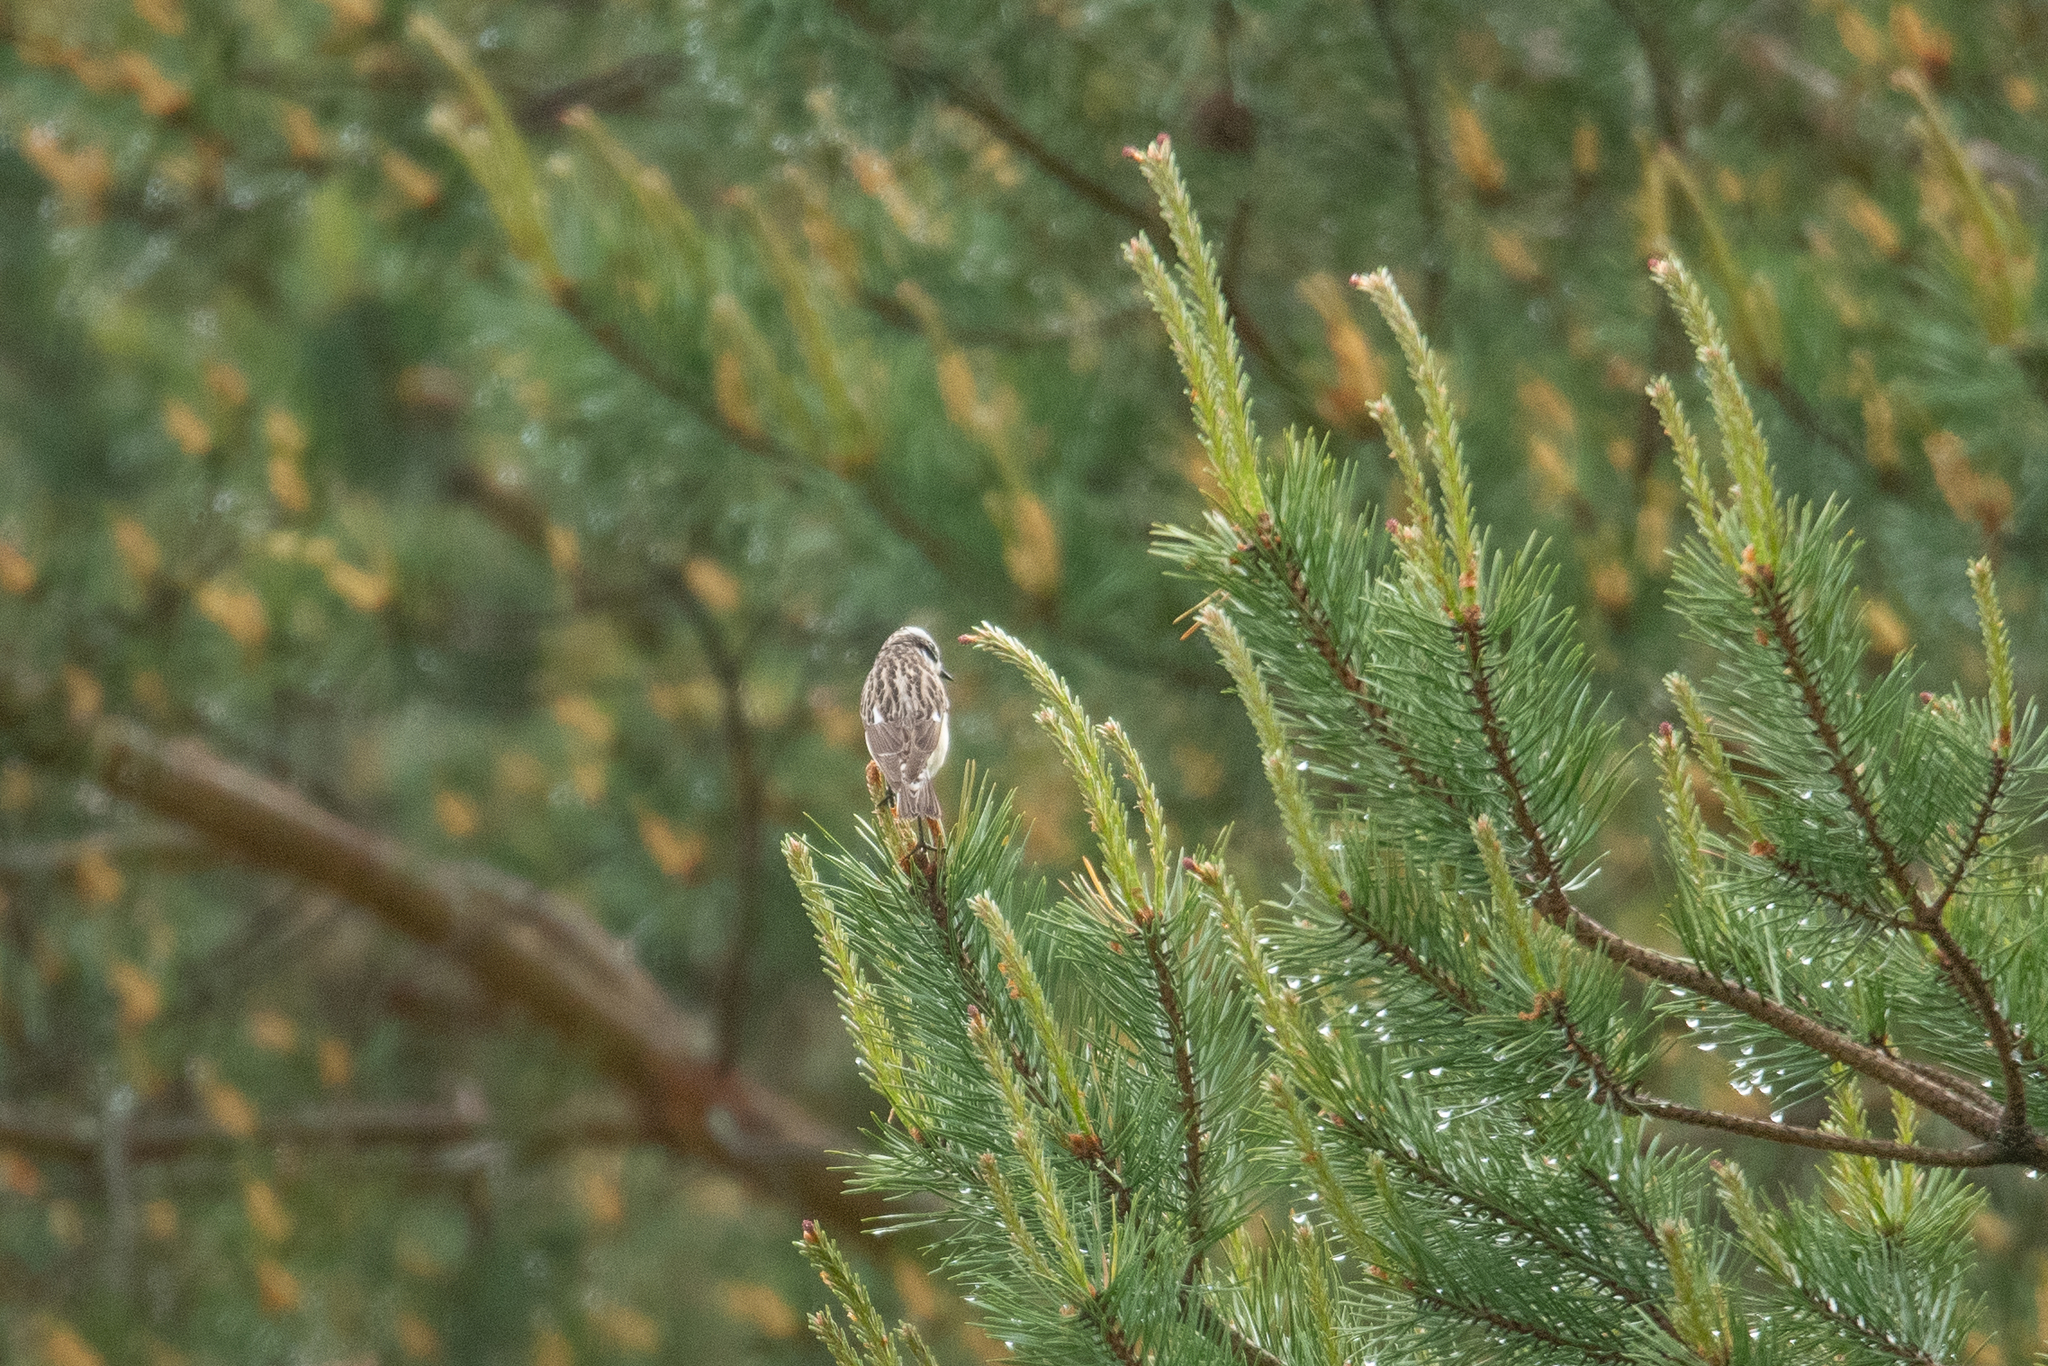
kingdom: Animalia
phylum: Chordata
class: Aves
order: Passeriformes
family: Muscicapidae
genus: Saxicola
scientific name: Saxicola rubetra
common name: Whinchat
